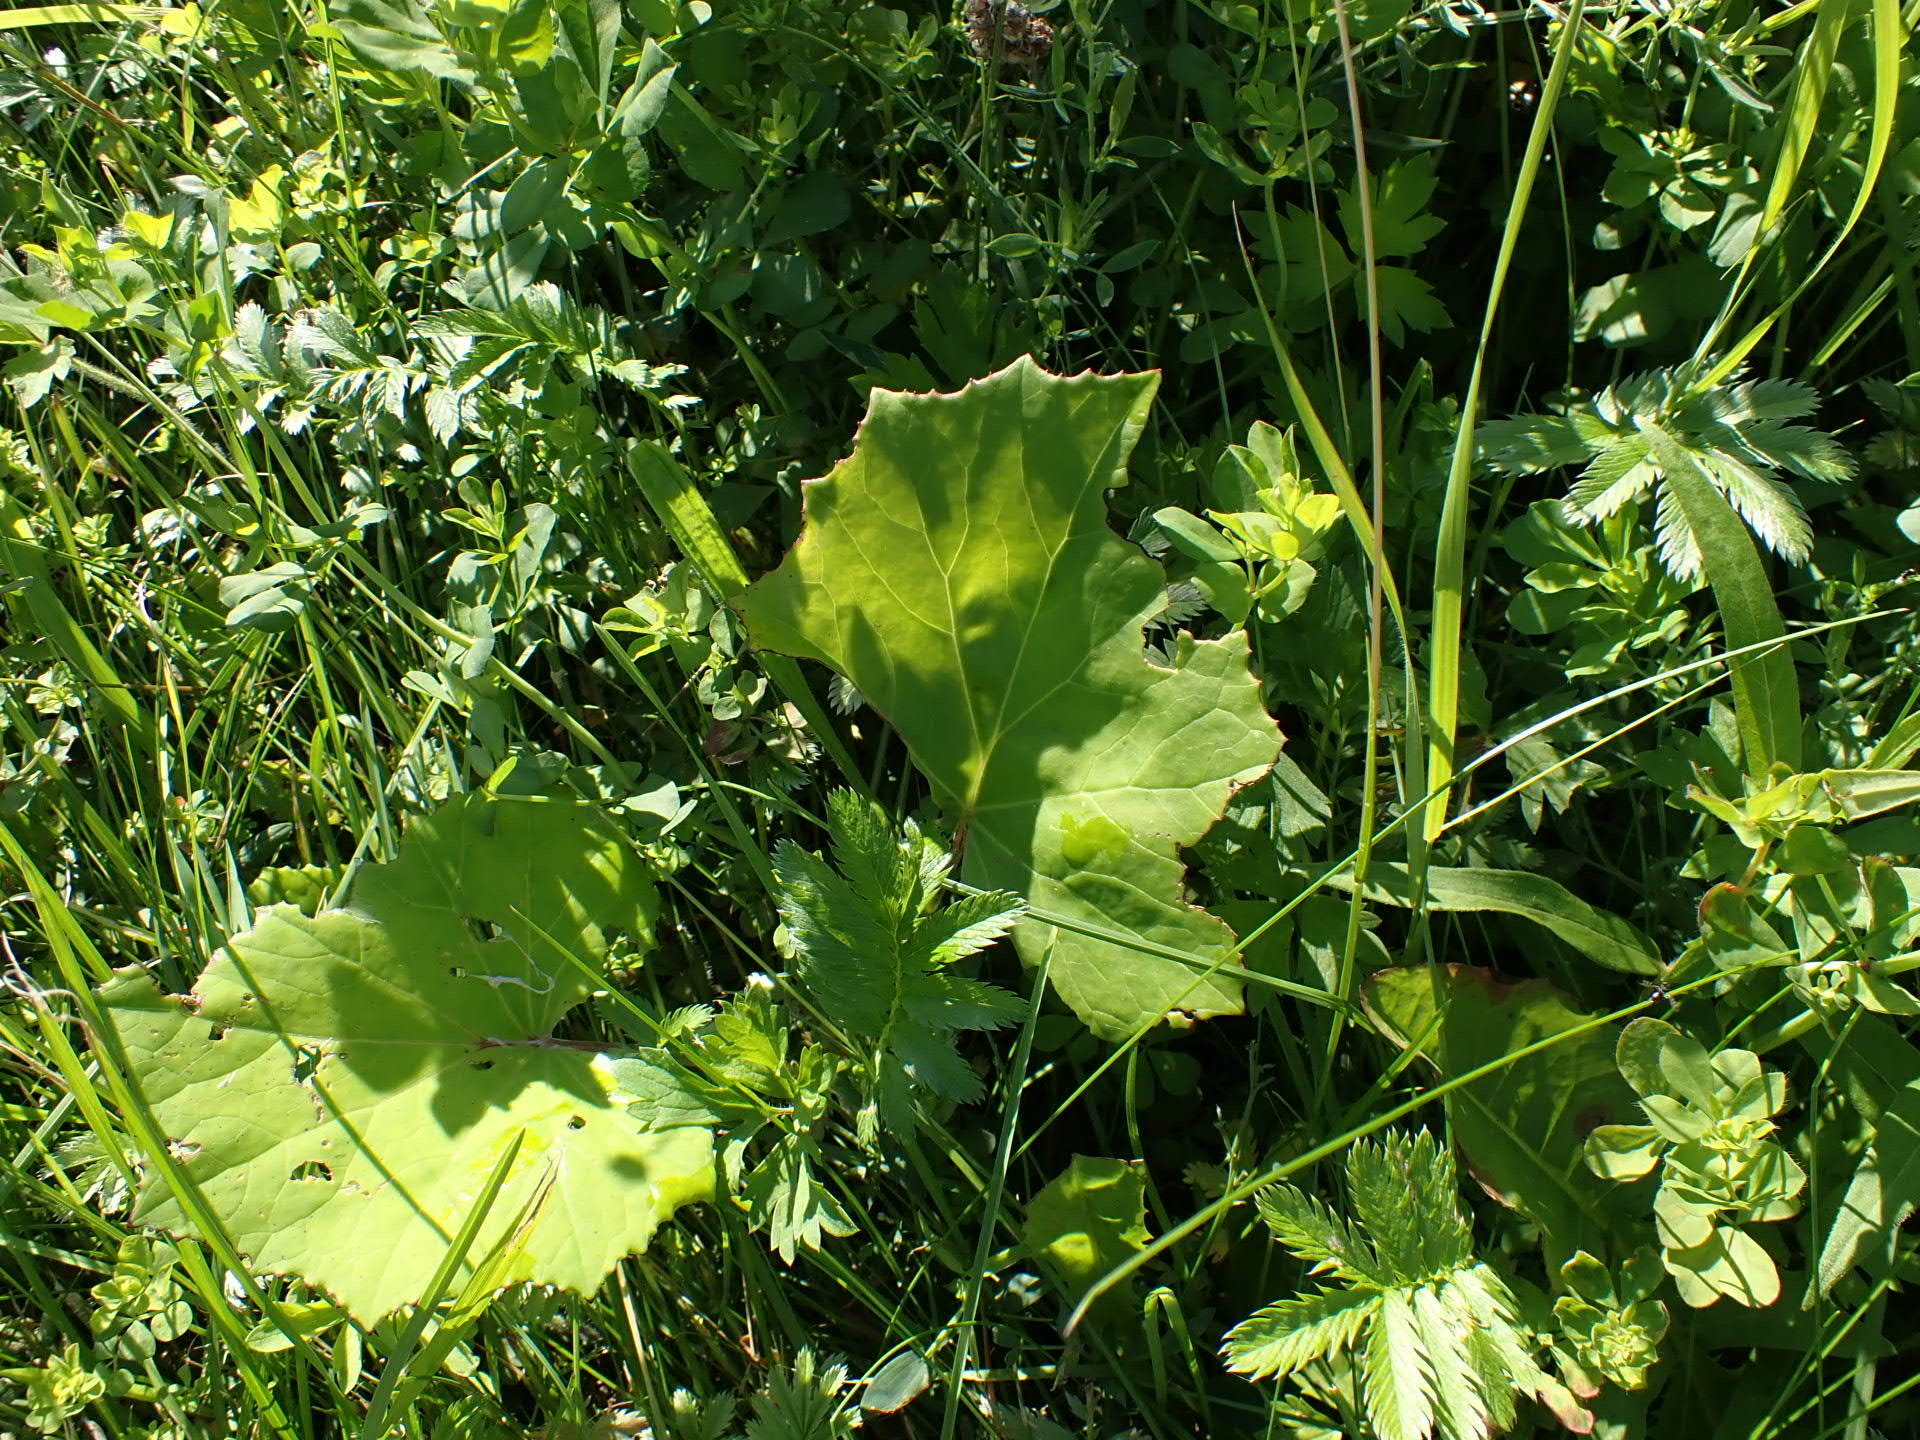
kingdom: Plantae
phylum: Tracheophyta
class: Magnoliopsida
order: Asterales
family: Asteraceae
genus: Tussilago
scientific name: Tussilago farfara
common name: Coltsfoot
